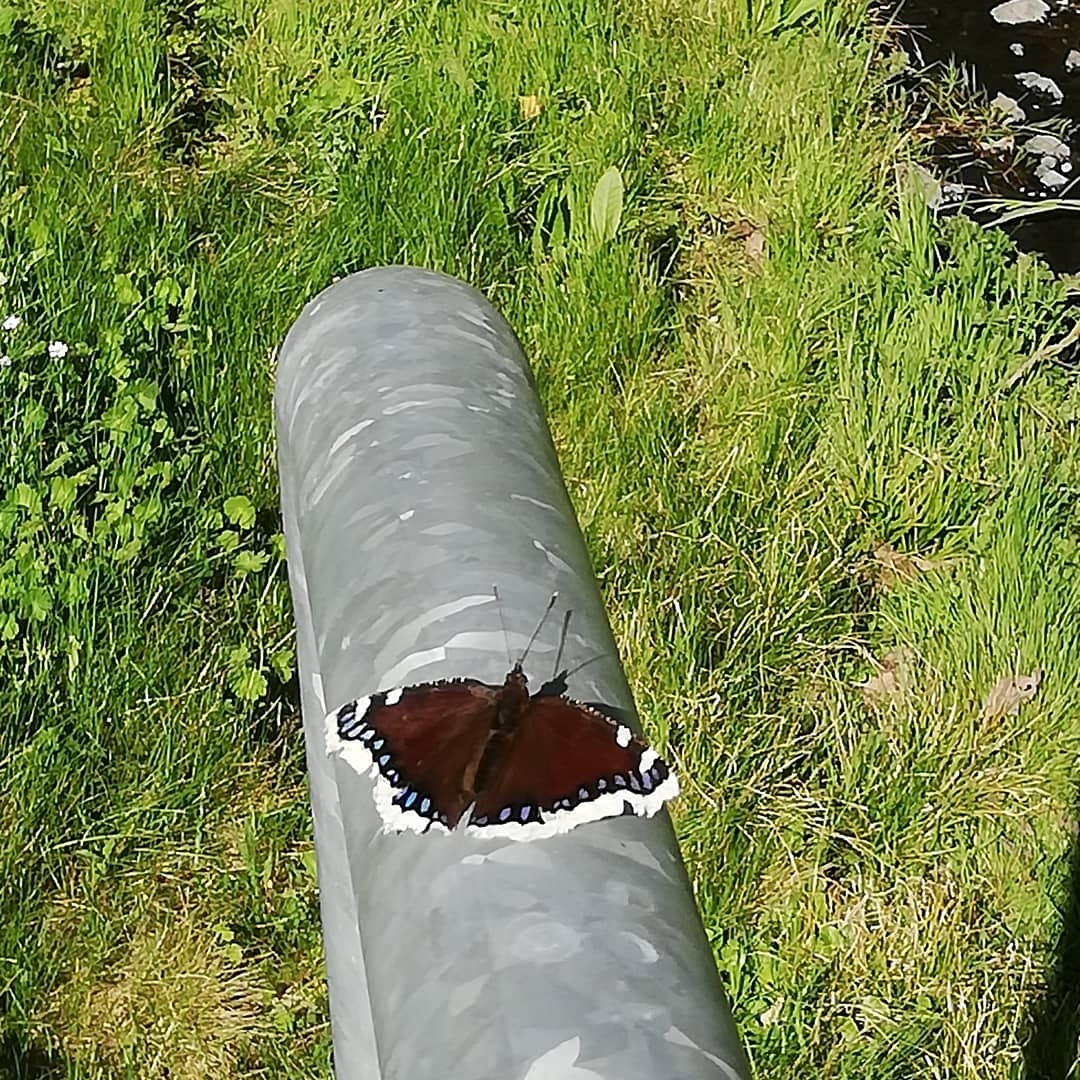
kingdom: Animalia
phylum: Arthropoda
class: Insecta
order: Lepidoptera
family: Nymphalidae
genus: Nymphalis
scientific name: Nymphalis antiopa
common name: Camberwell beauty
